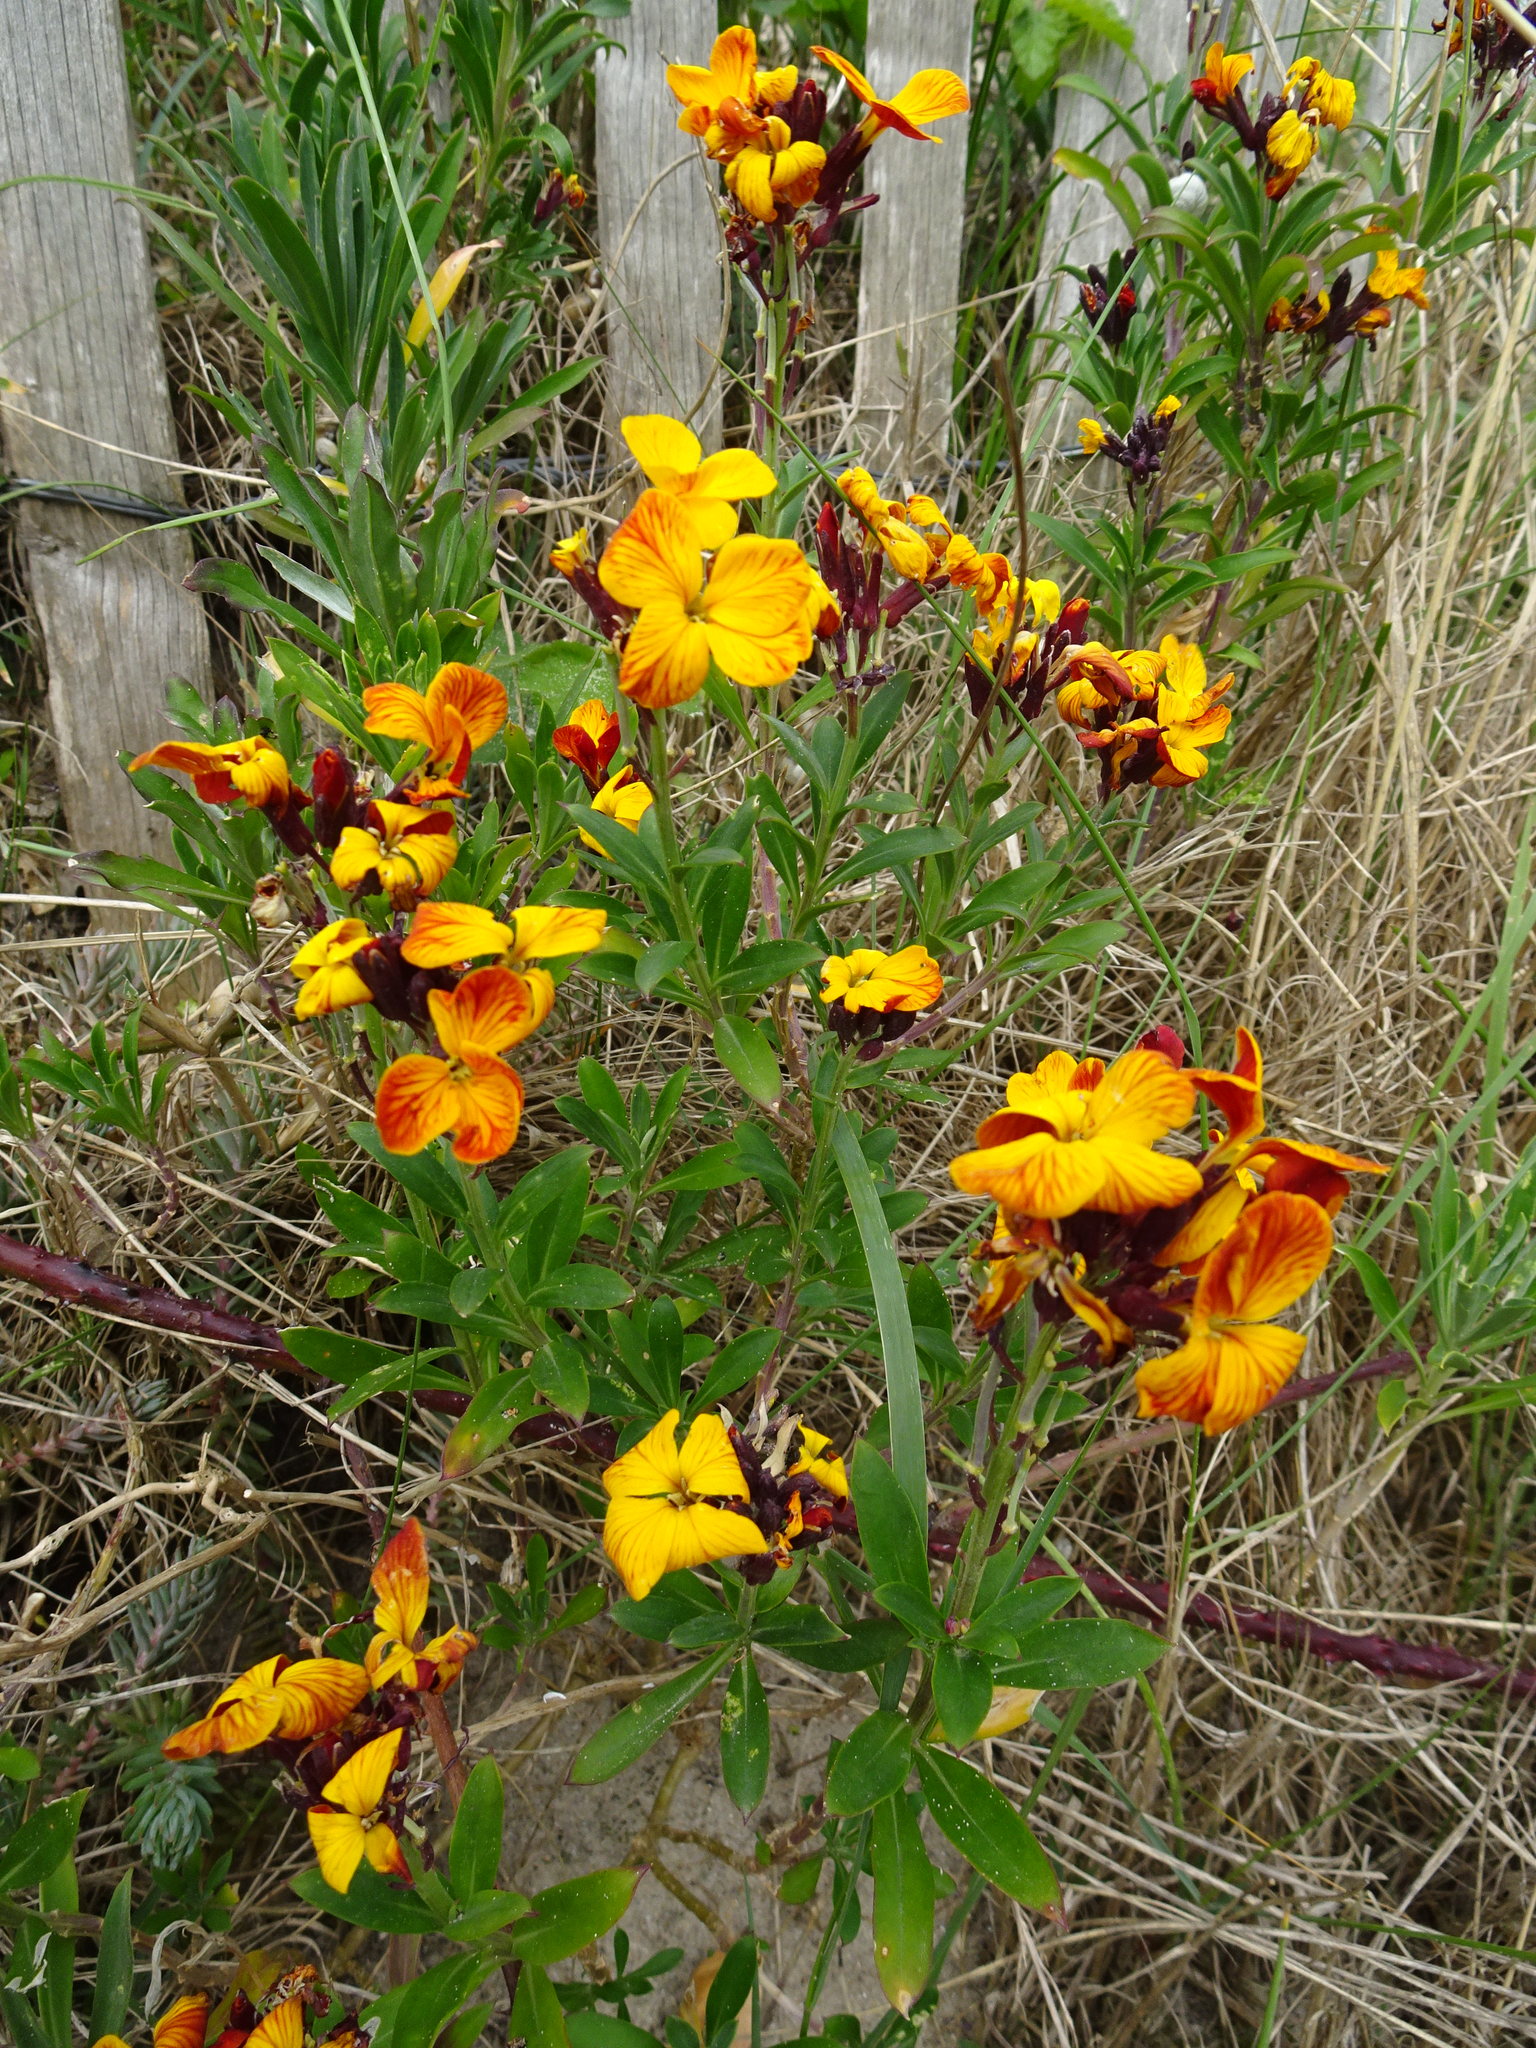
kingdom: Plantae
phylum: Tracheophyta
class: Magnoliopsida
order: Brassicales
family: Brassicaceae
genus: Erysimum
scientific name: Erysimum cheiri
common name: Wallflower
